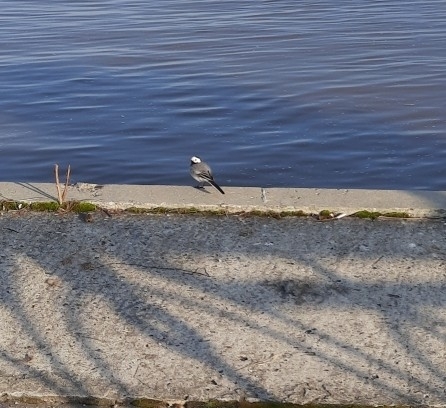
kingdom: Animalia
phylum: Chordata
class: Aves
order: Passeriformes
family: Motacillidae
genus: Motacilla
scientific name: Motacilla alba
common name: White wagtail
